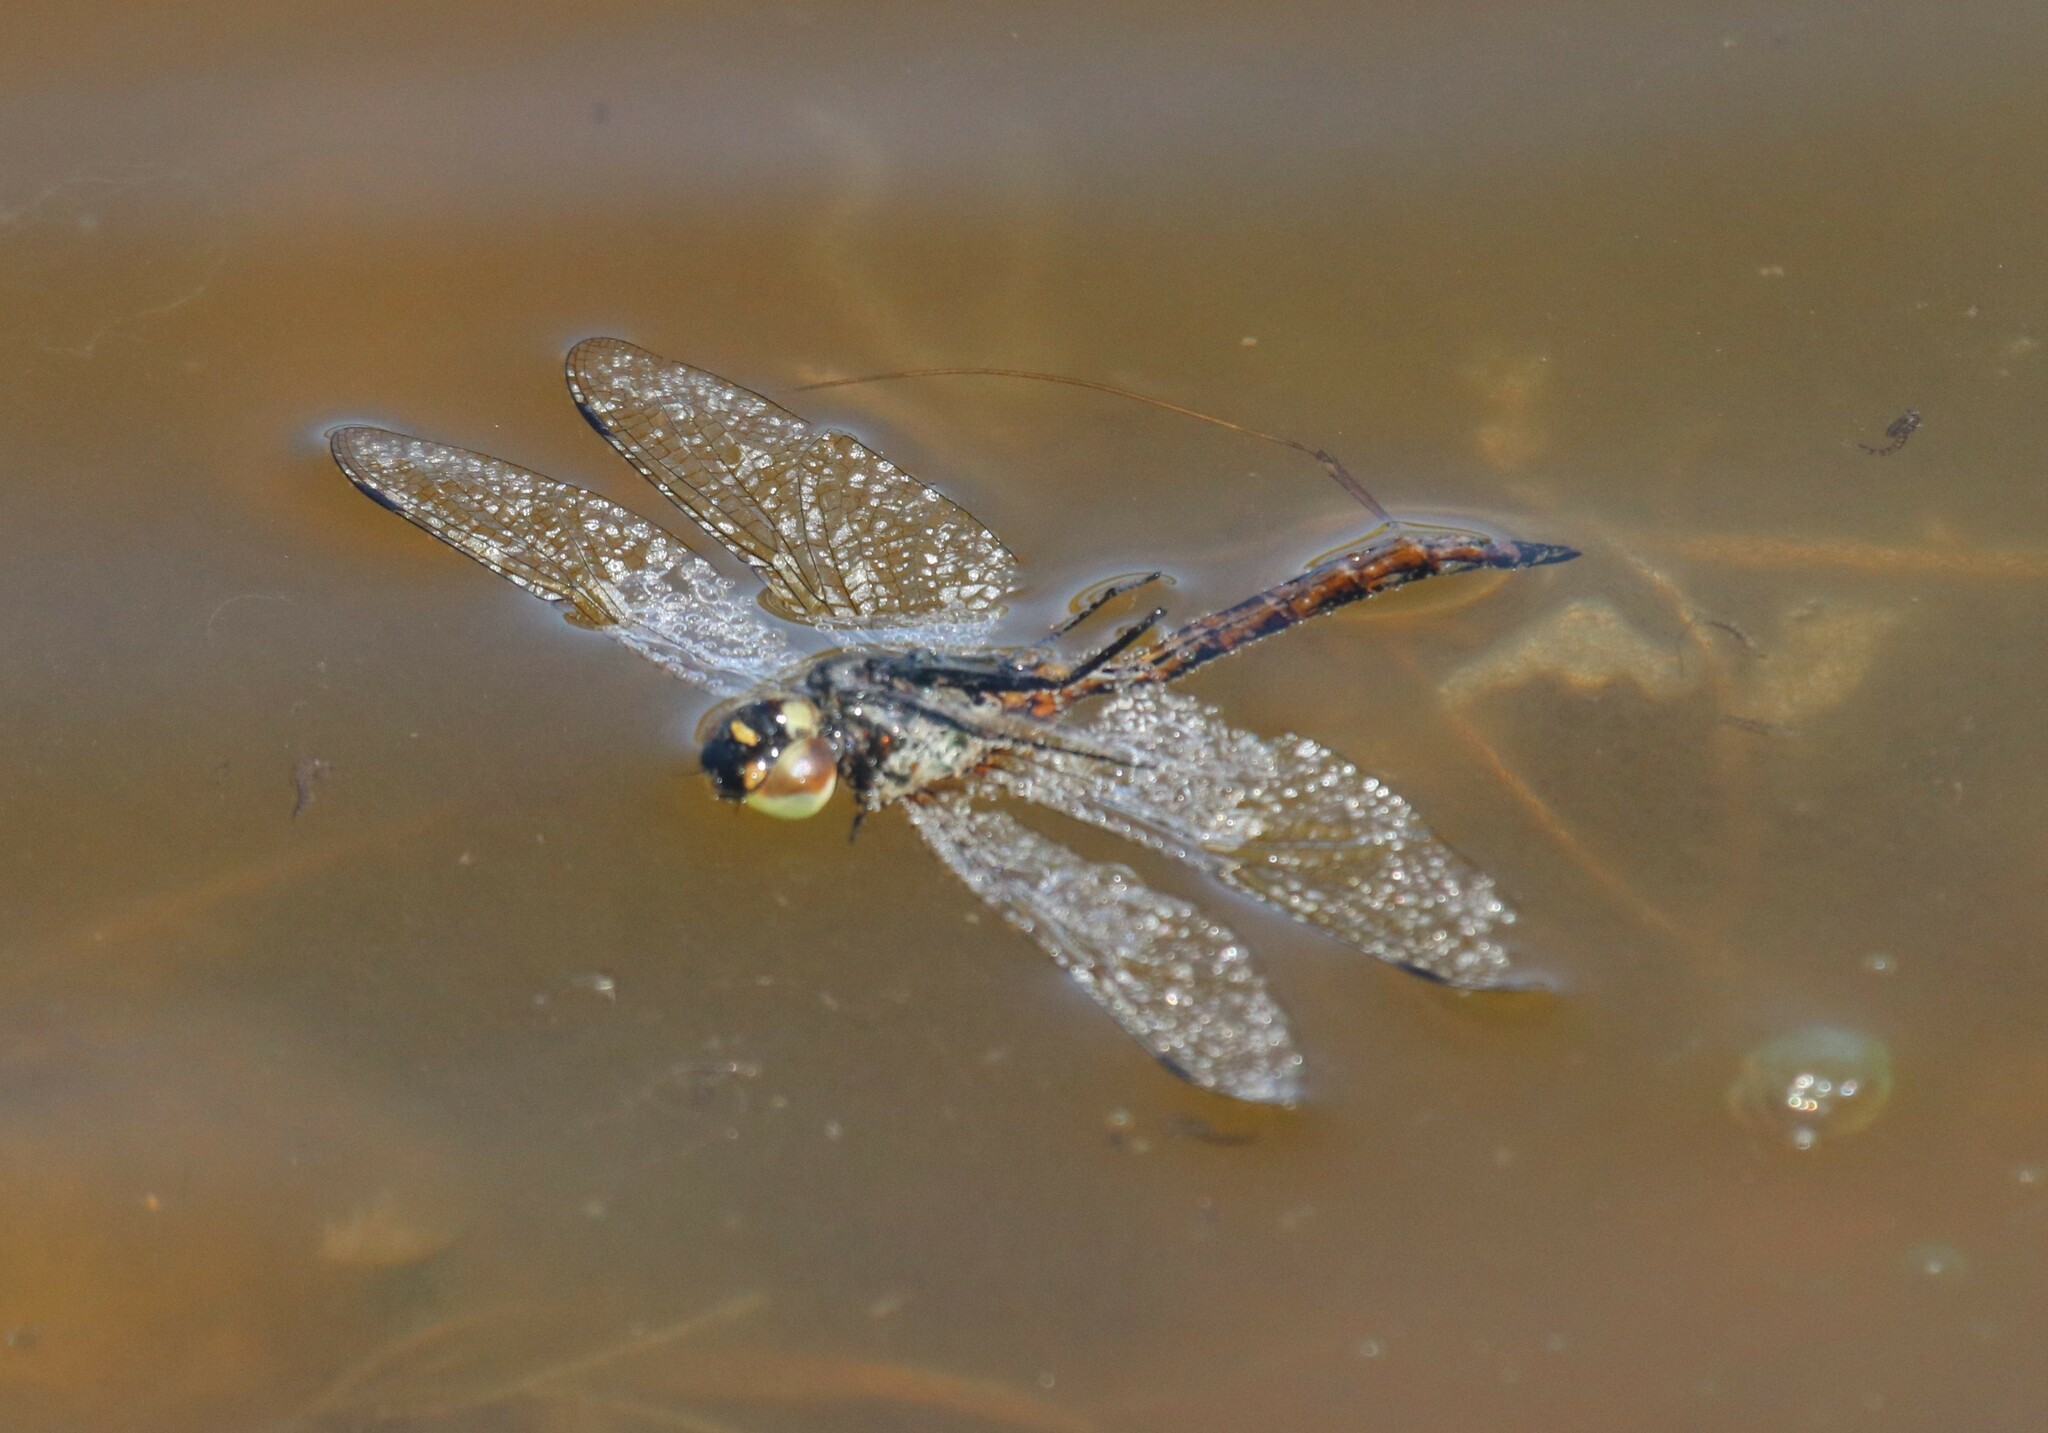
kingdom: Animalia
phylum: Arthropoda
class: Insecta
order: Odonata
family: Corduliidae
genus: Somatochlora
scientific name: Somatochlora flavomaculata
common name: Yellow-spotted emerald
